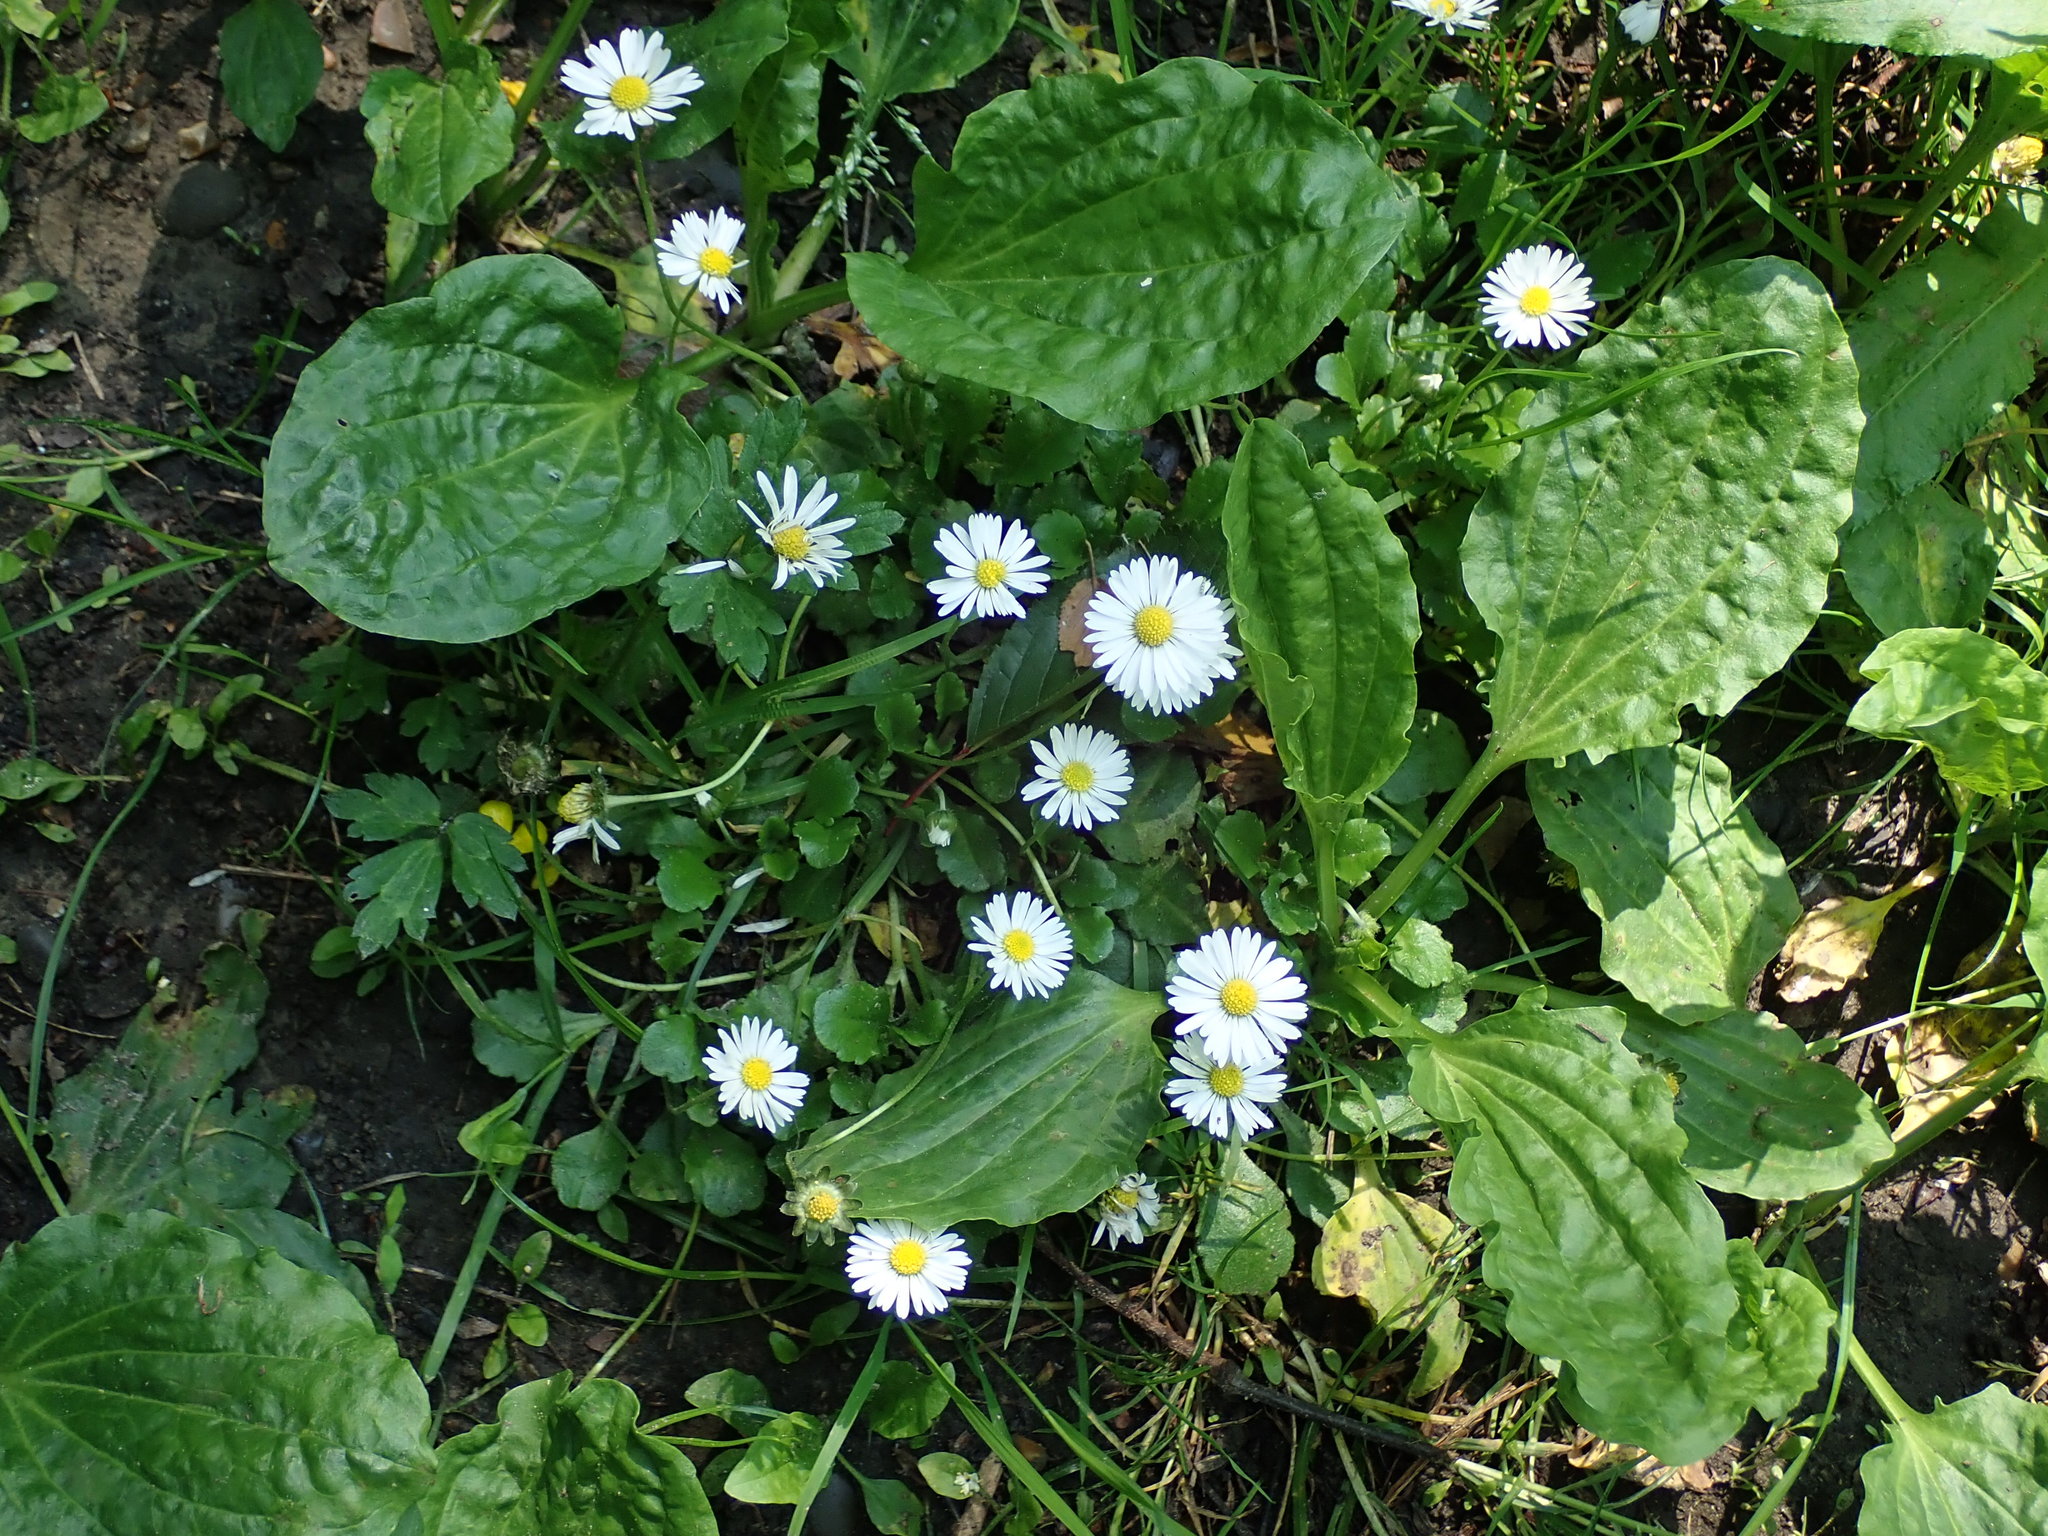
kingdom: Plantae
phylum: Tracheophyta
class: Magnoliopsida
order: Asterales
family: Asteraceae
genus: Bellis
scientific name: Bellis perennis
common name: Lawndaisy
